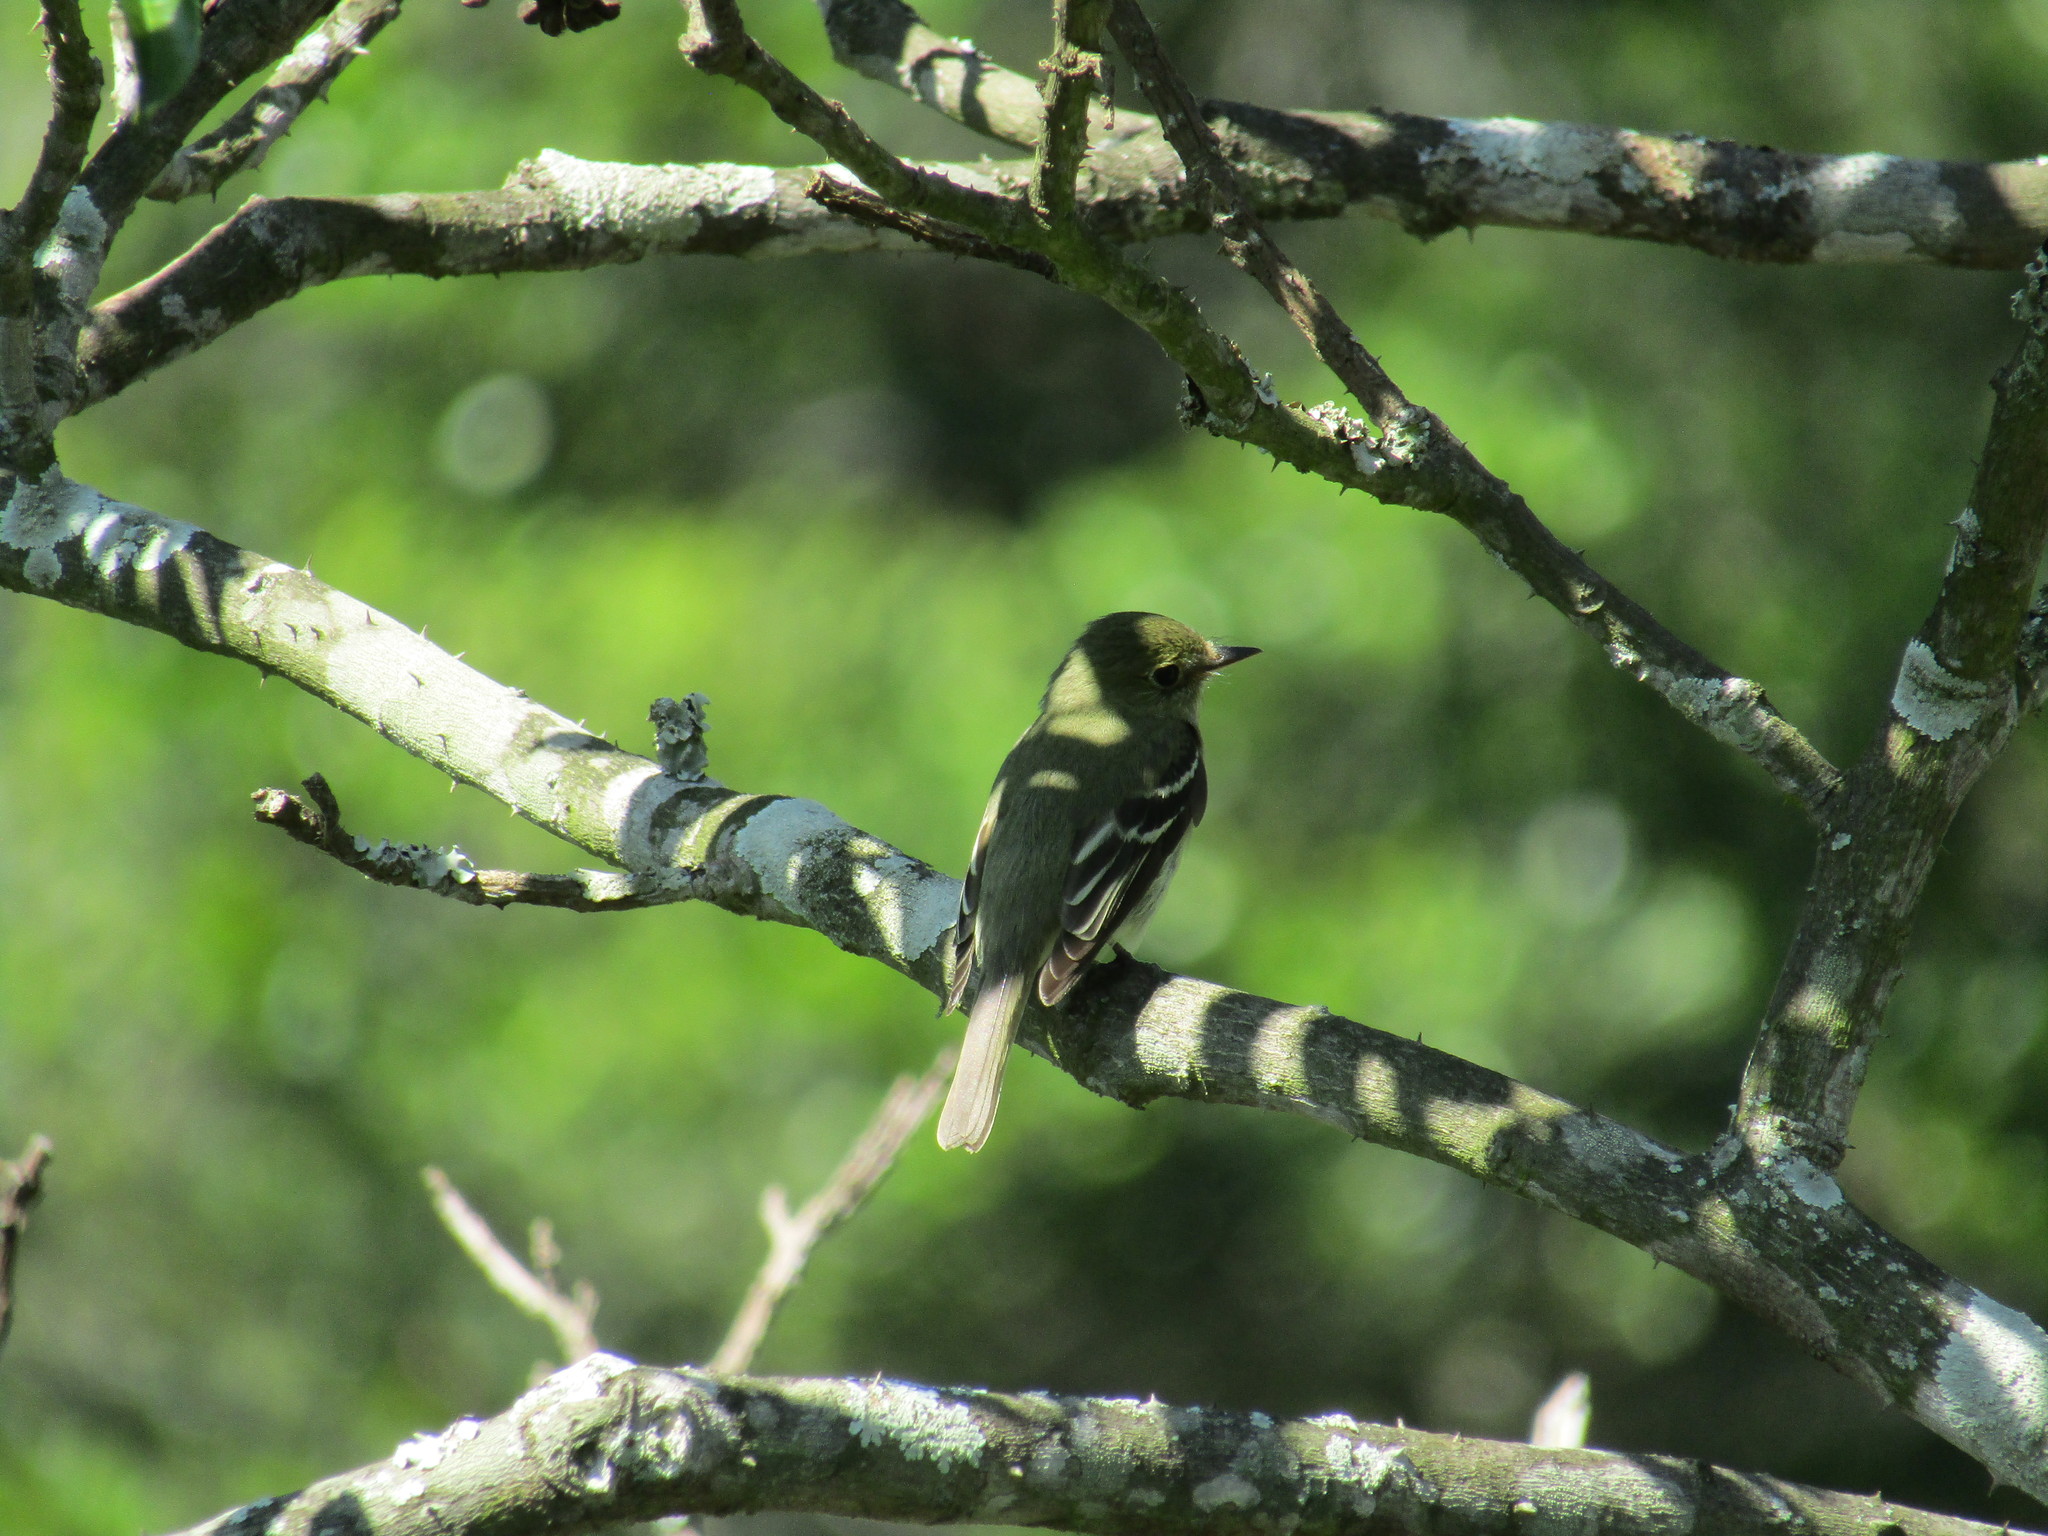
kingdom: Animalia
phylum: Chordata
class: Aves
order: Passeriformes
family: Tyrannidae
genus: Empidonax
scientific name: Empidonax
